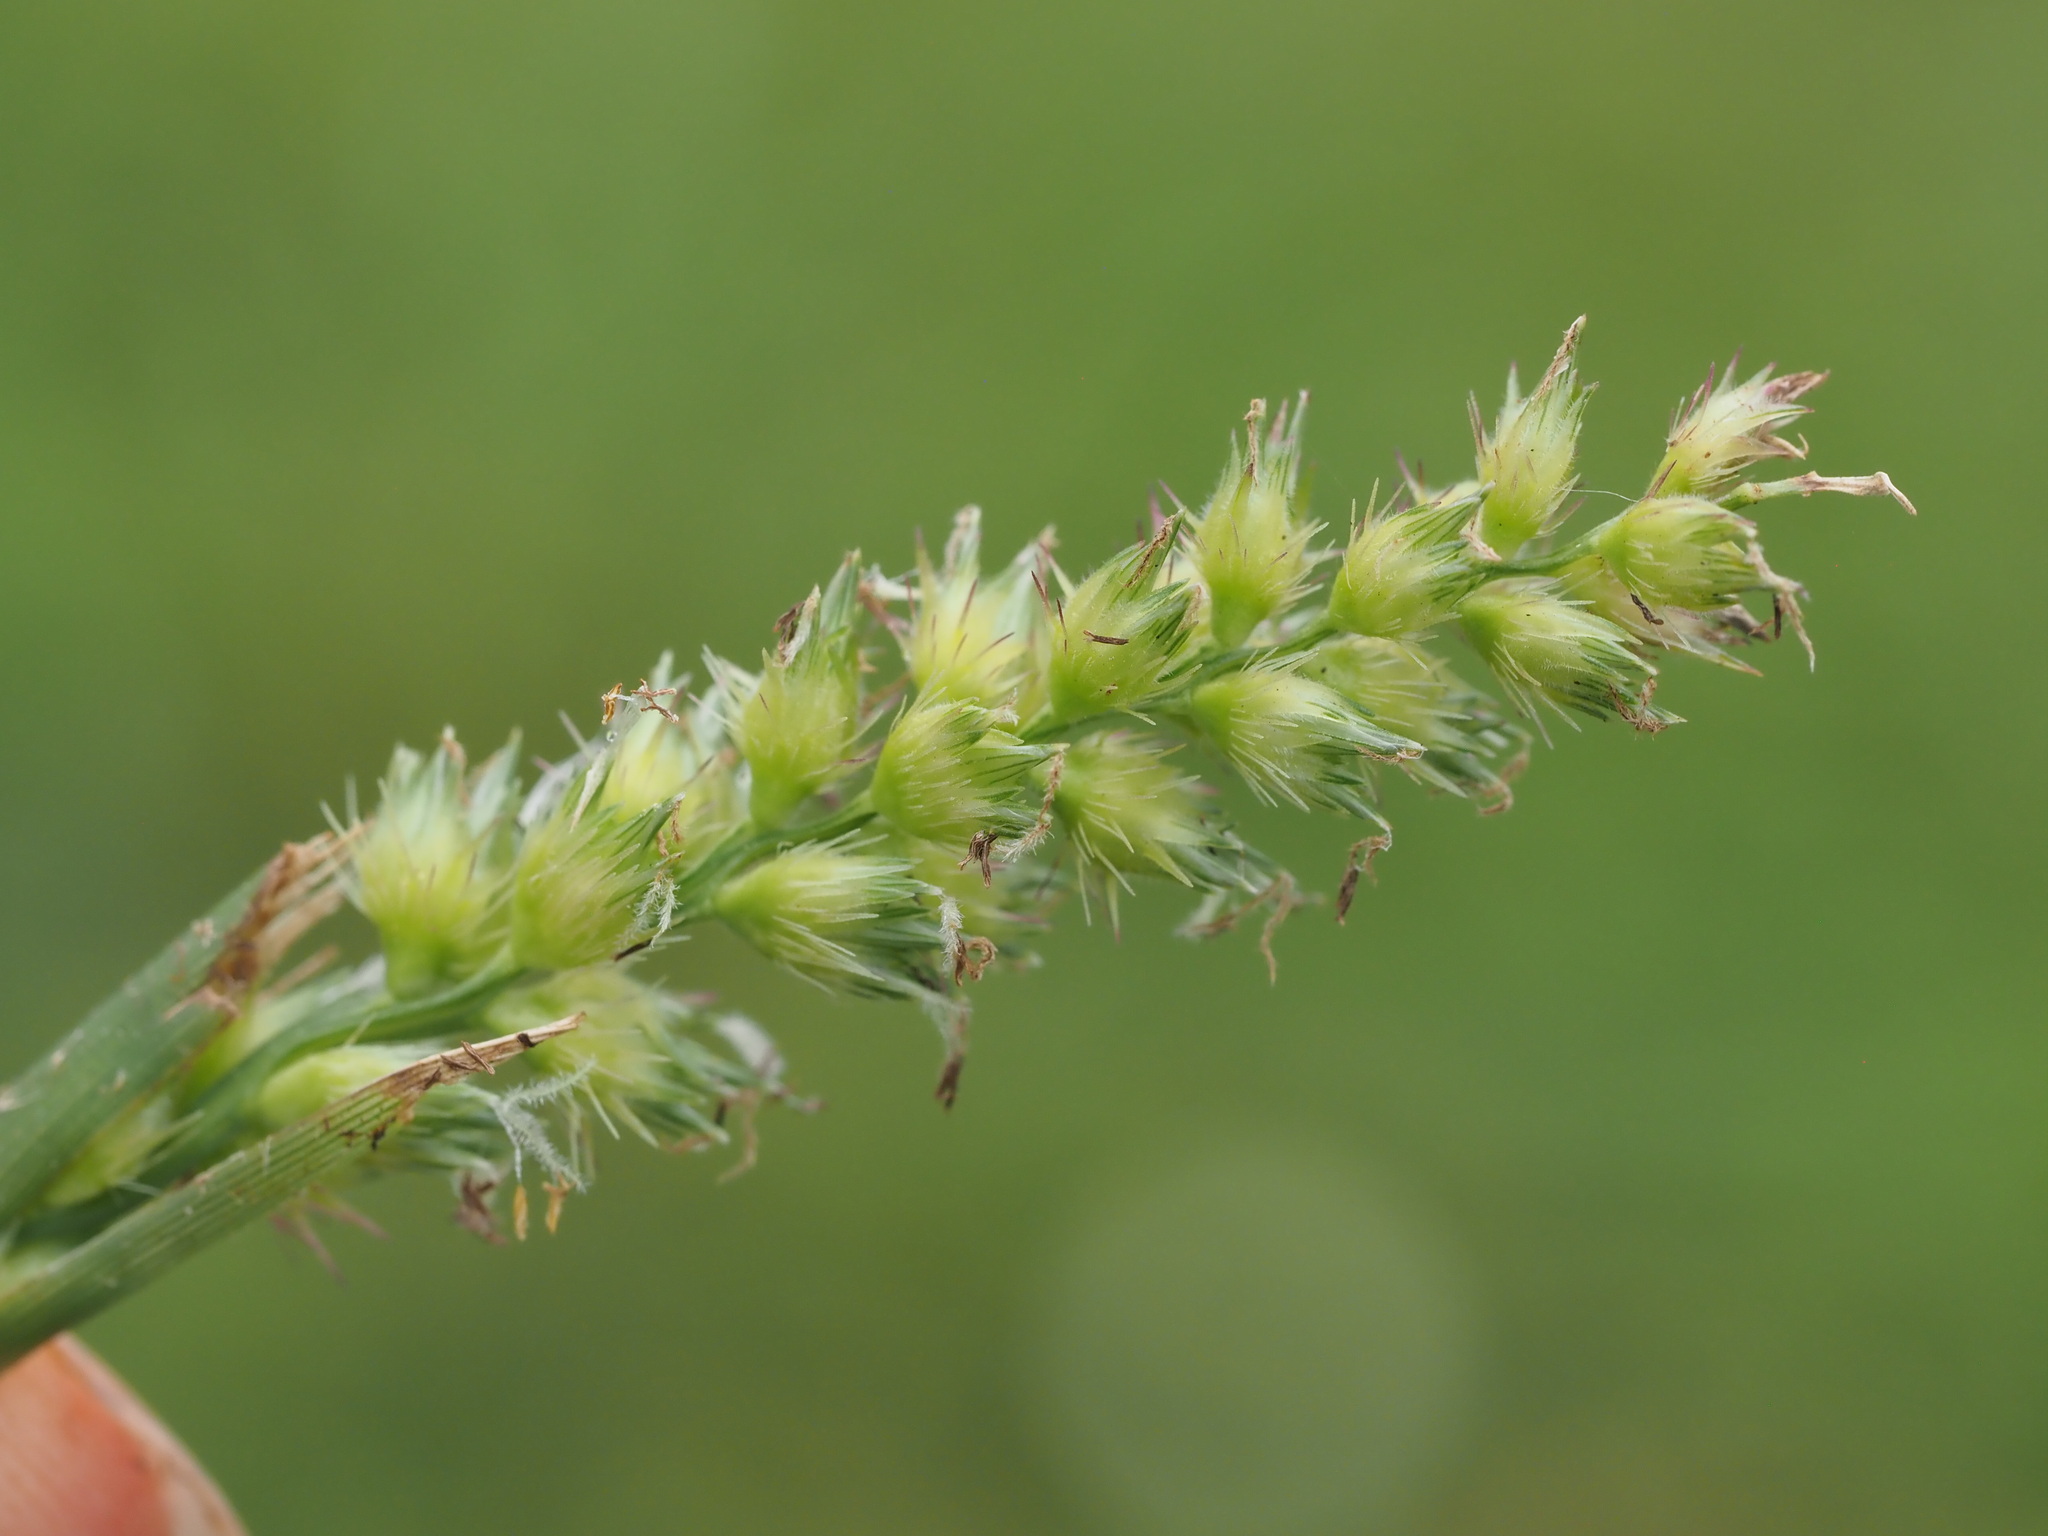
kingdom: Plantae
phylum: Tracheophyta
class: Liliopsida
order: Poales
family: Poaceae
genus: Cenchrus
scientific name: Cenchrus echinatus
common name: Southern sandbur
